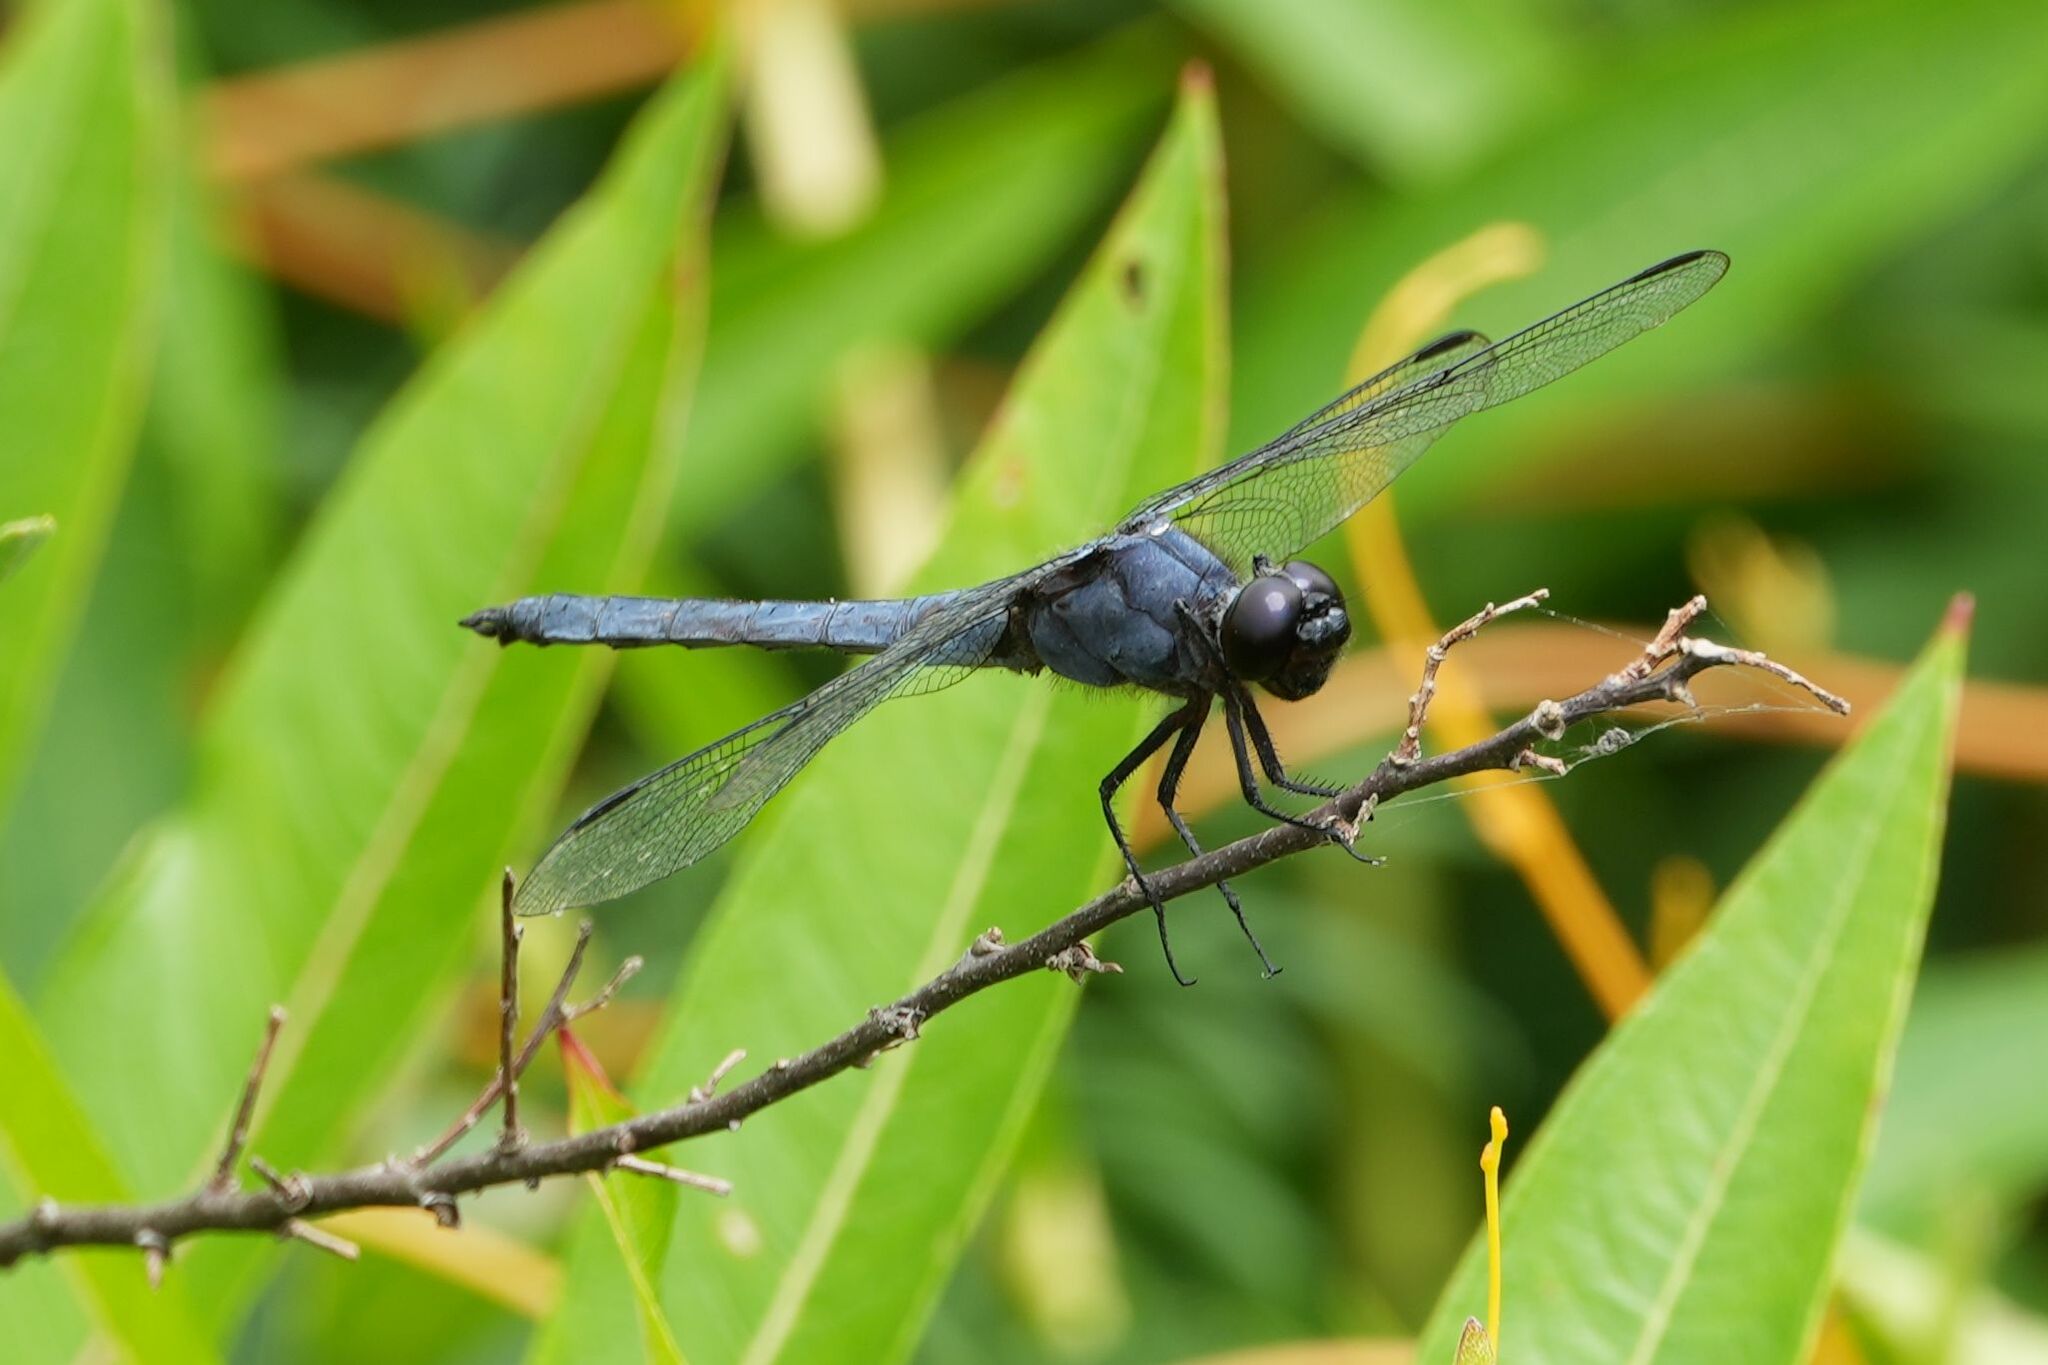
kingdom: Animalia
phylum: Arthropoda
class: Insecta
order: Odonata
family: Libellulidae
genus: Libellula
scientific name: Libellula incesta
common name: Slaty skimmer
